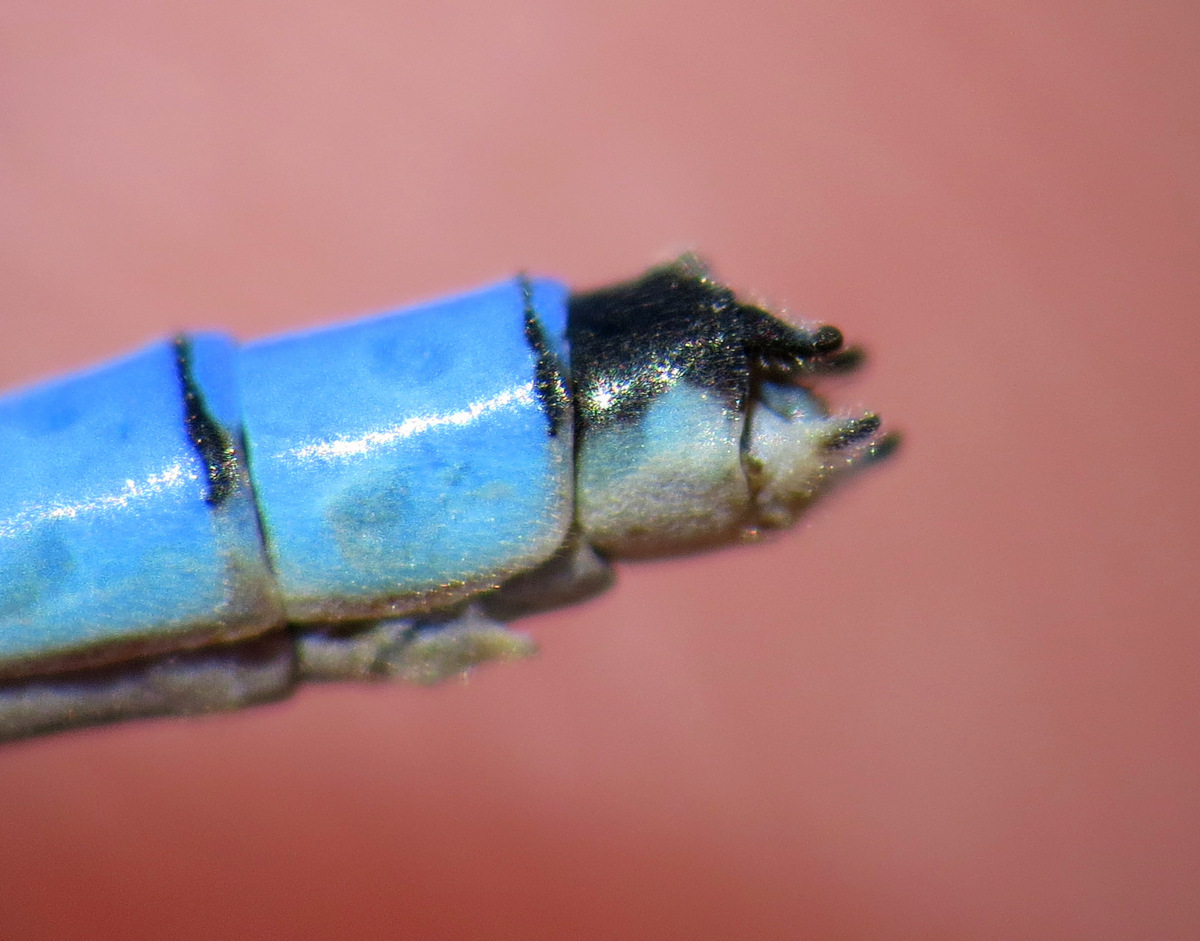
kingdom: Animalia
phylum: Arthropoda
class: Insecta
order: Odonata
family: Coenagrionidae
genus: Enallagma
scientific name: Enallagma hageni
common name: Hagen's bluet
